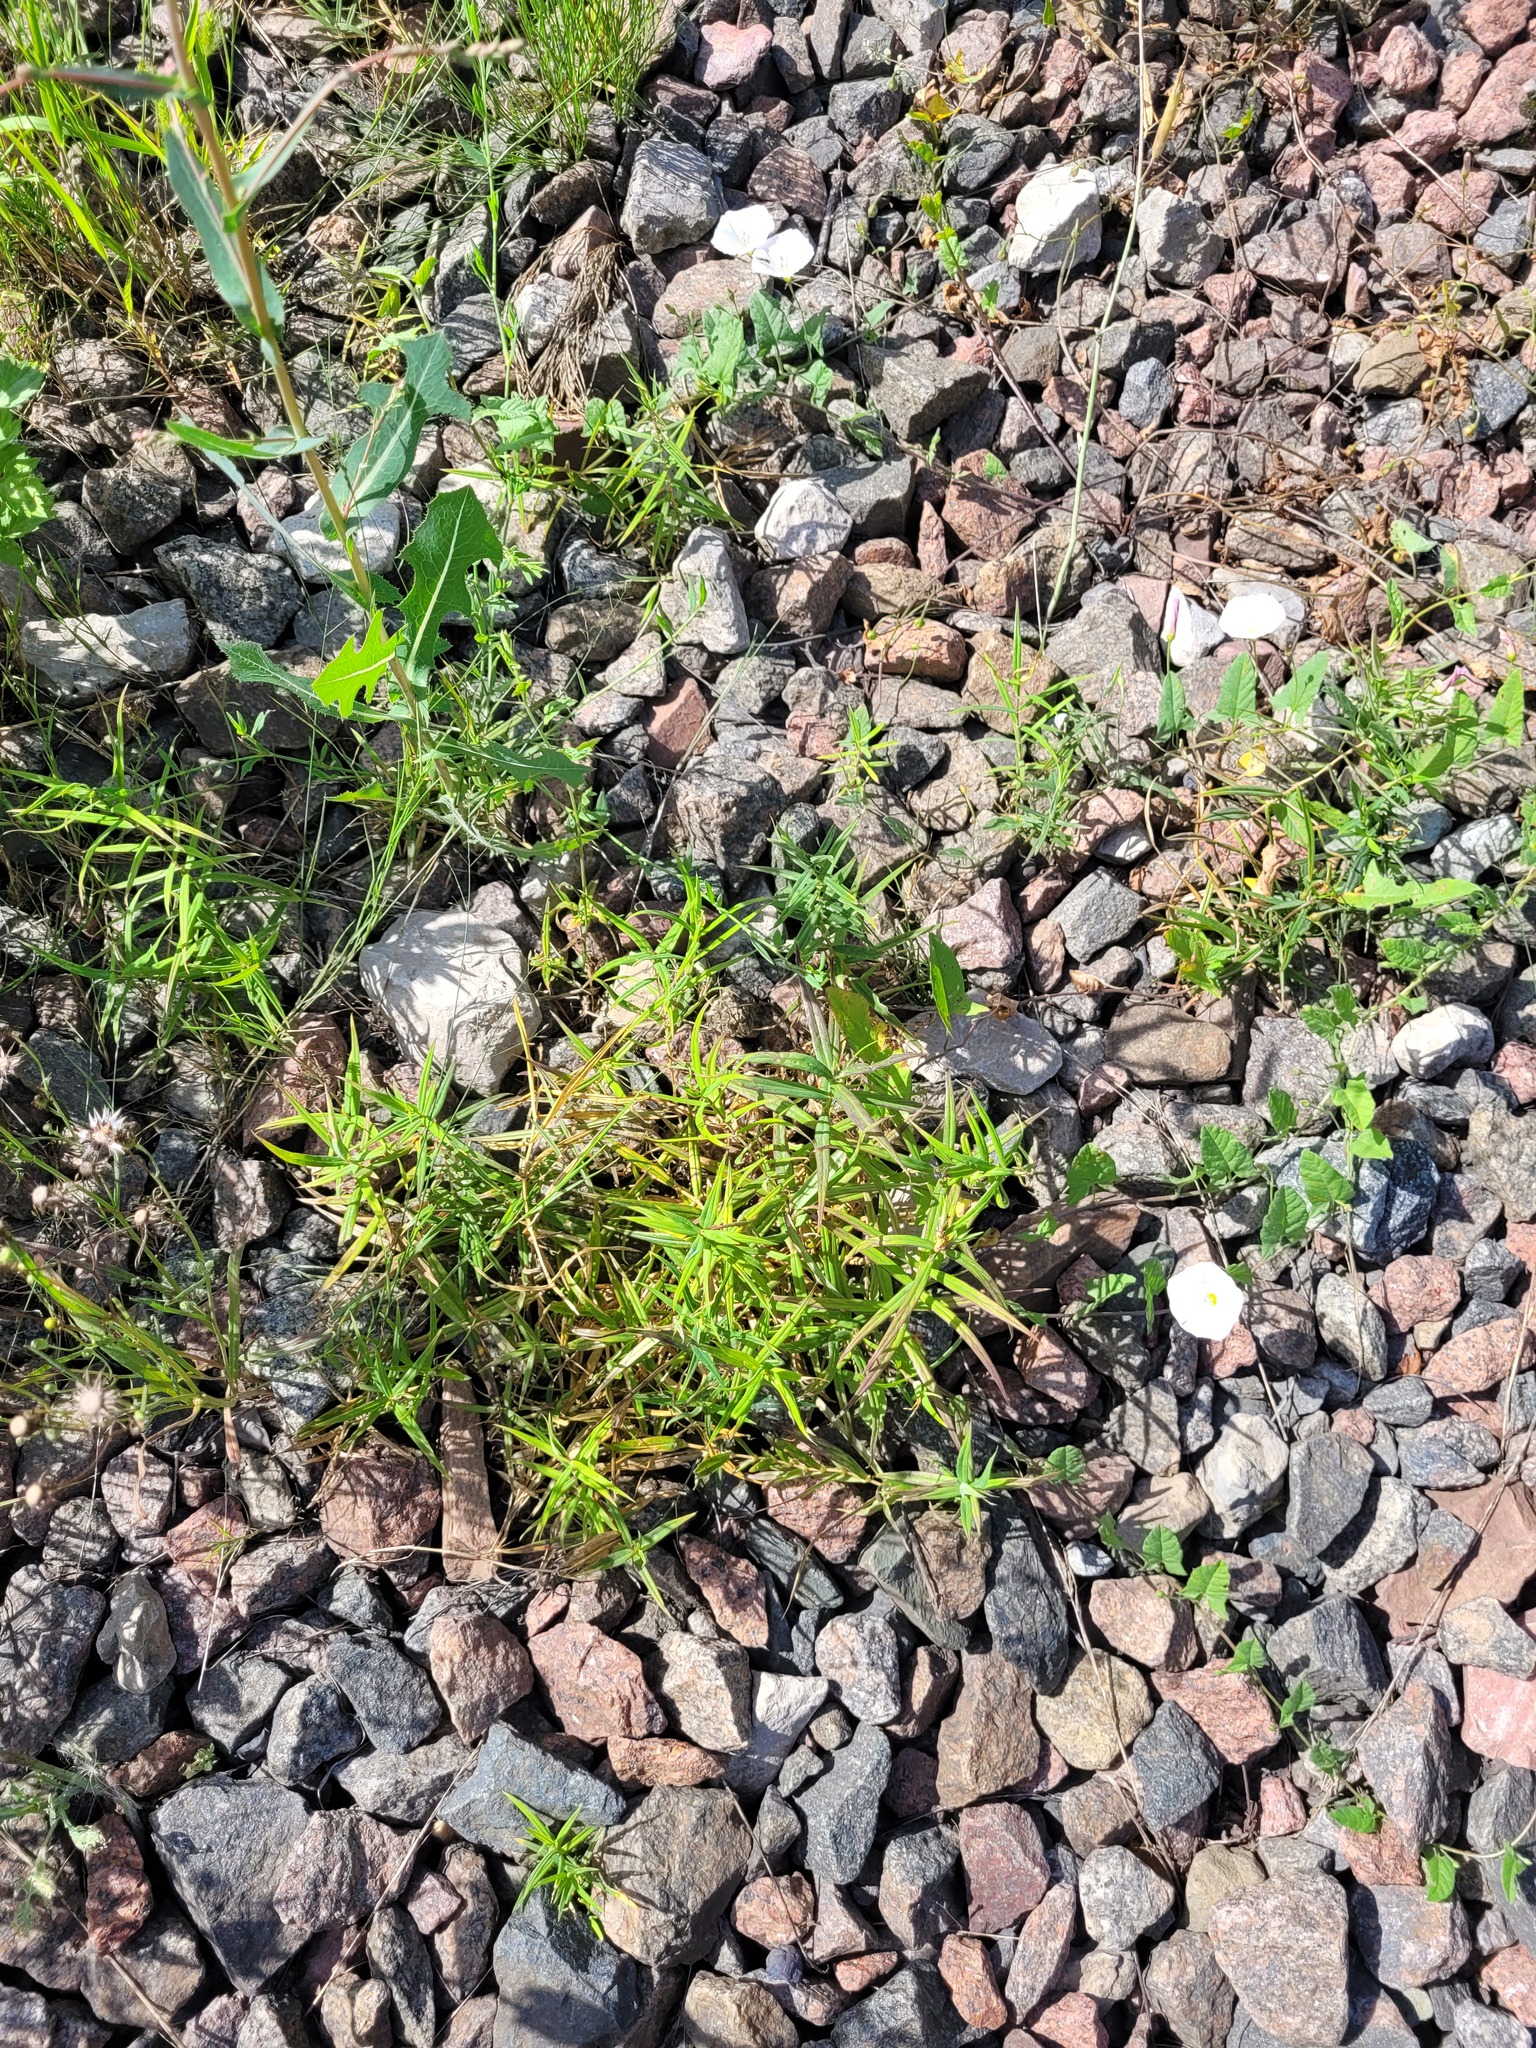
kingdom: Plantae
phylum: Tracheophyta
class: Magnoliopsida
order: Caryophyllales
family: Caryophyllaceae
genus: Rabelera
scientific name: Rabelera holostea
